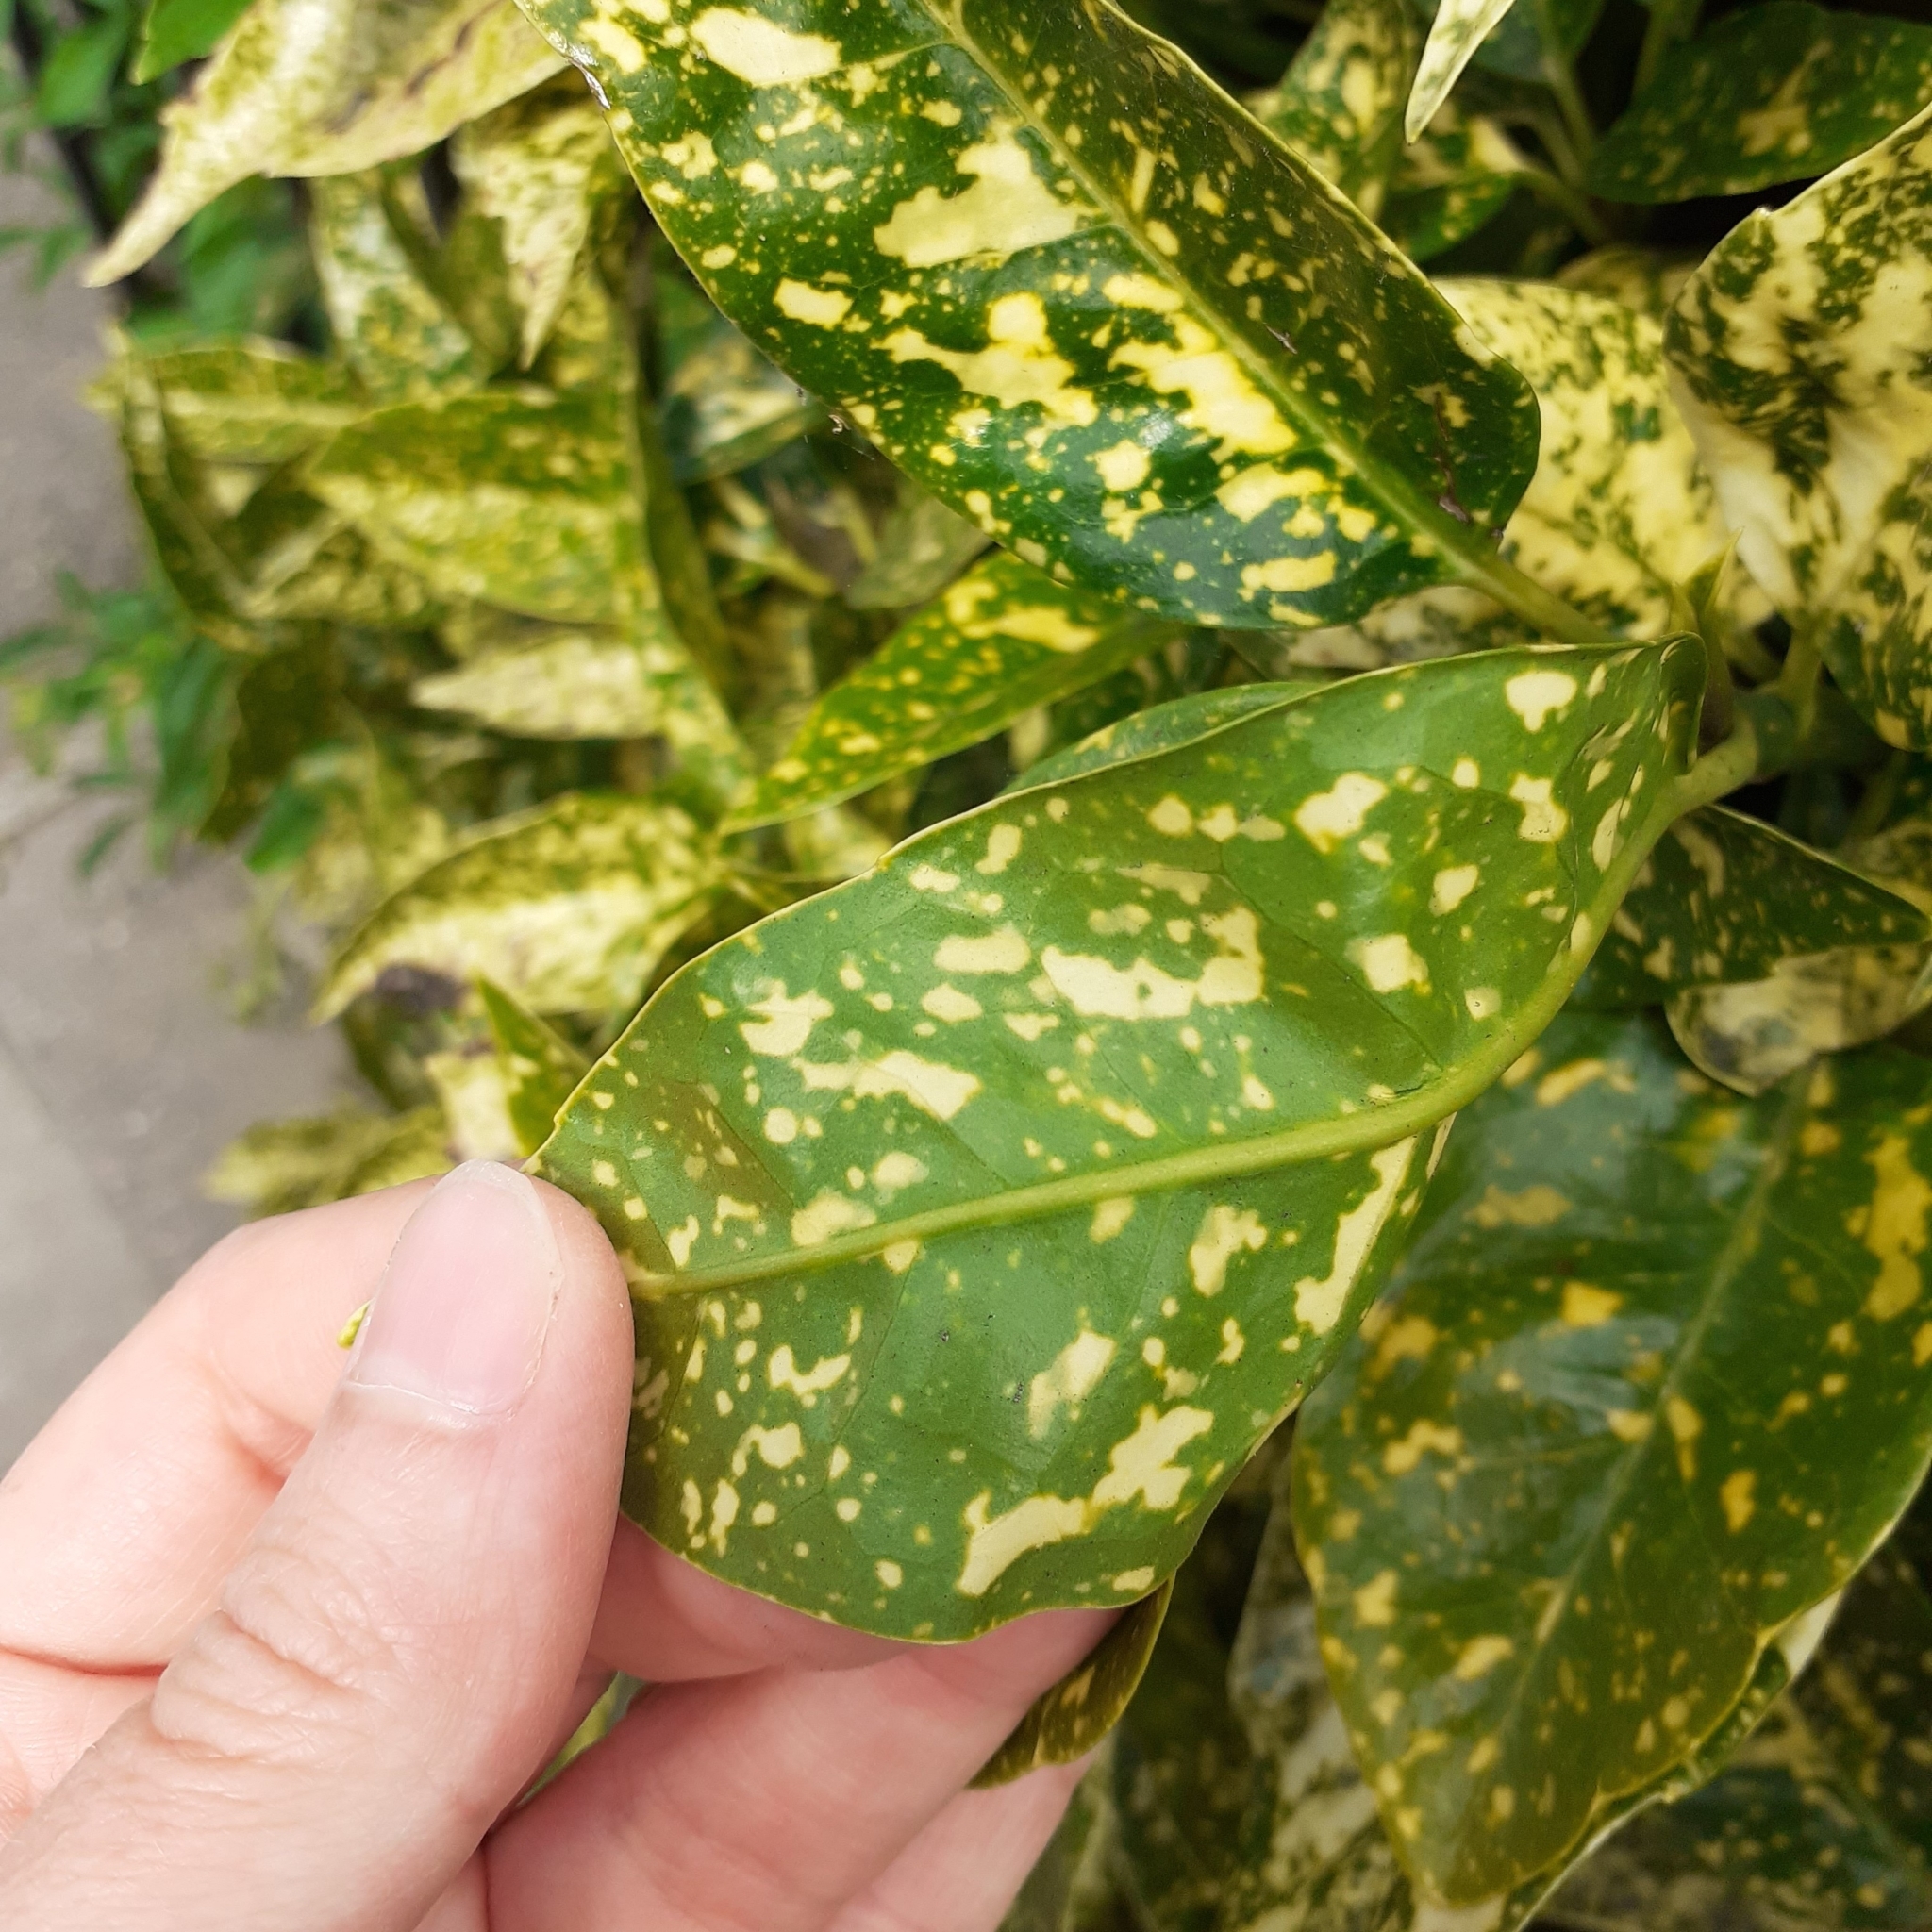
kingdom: Plantae
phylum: Tracheophyta
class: Magnoliopsida
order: Garryales
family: Garryaceae
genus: Aucuba
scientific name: Aucuba japonica
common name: Spotted-laurel
